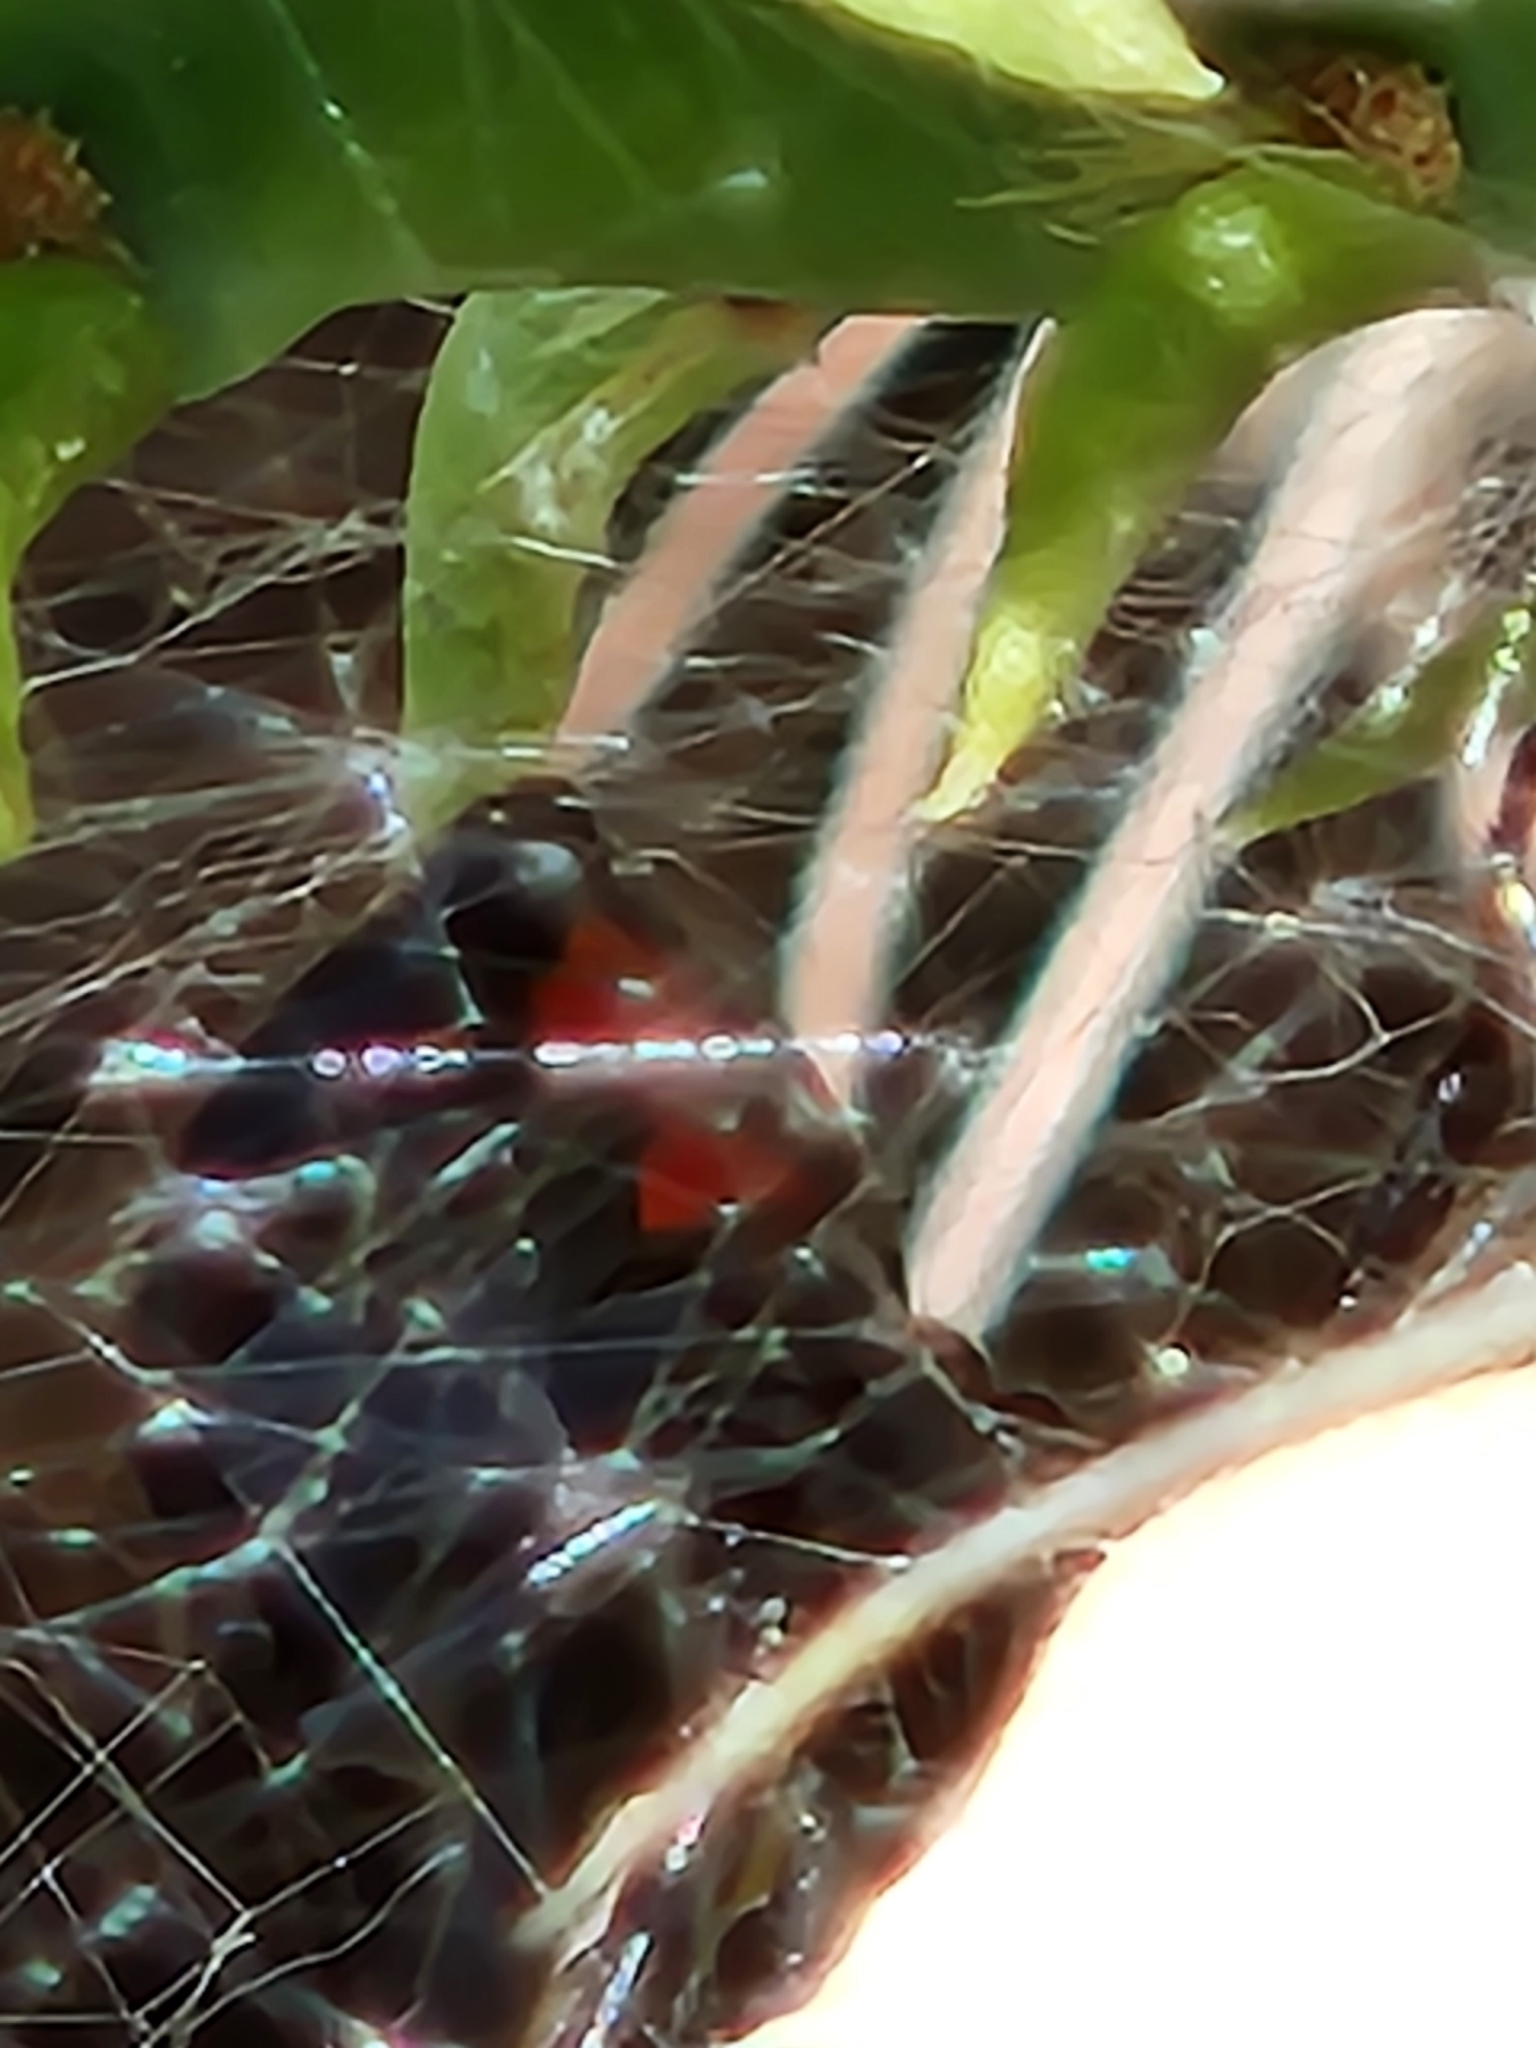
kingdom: Animalia
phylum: Arthropoda
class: Arachnida
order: Araneae
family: Theridiidae
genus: Latrodectus
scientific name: Latrodectus mactans
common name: Cobweb spiders
